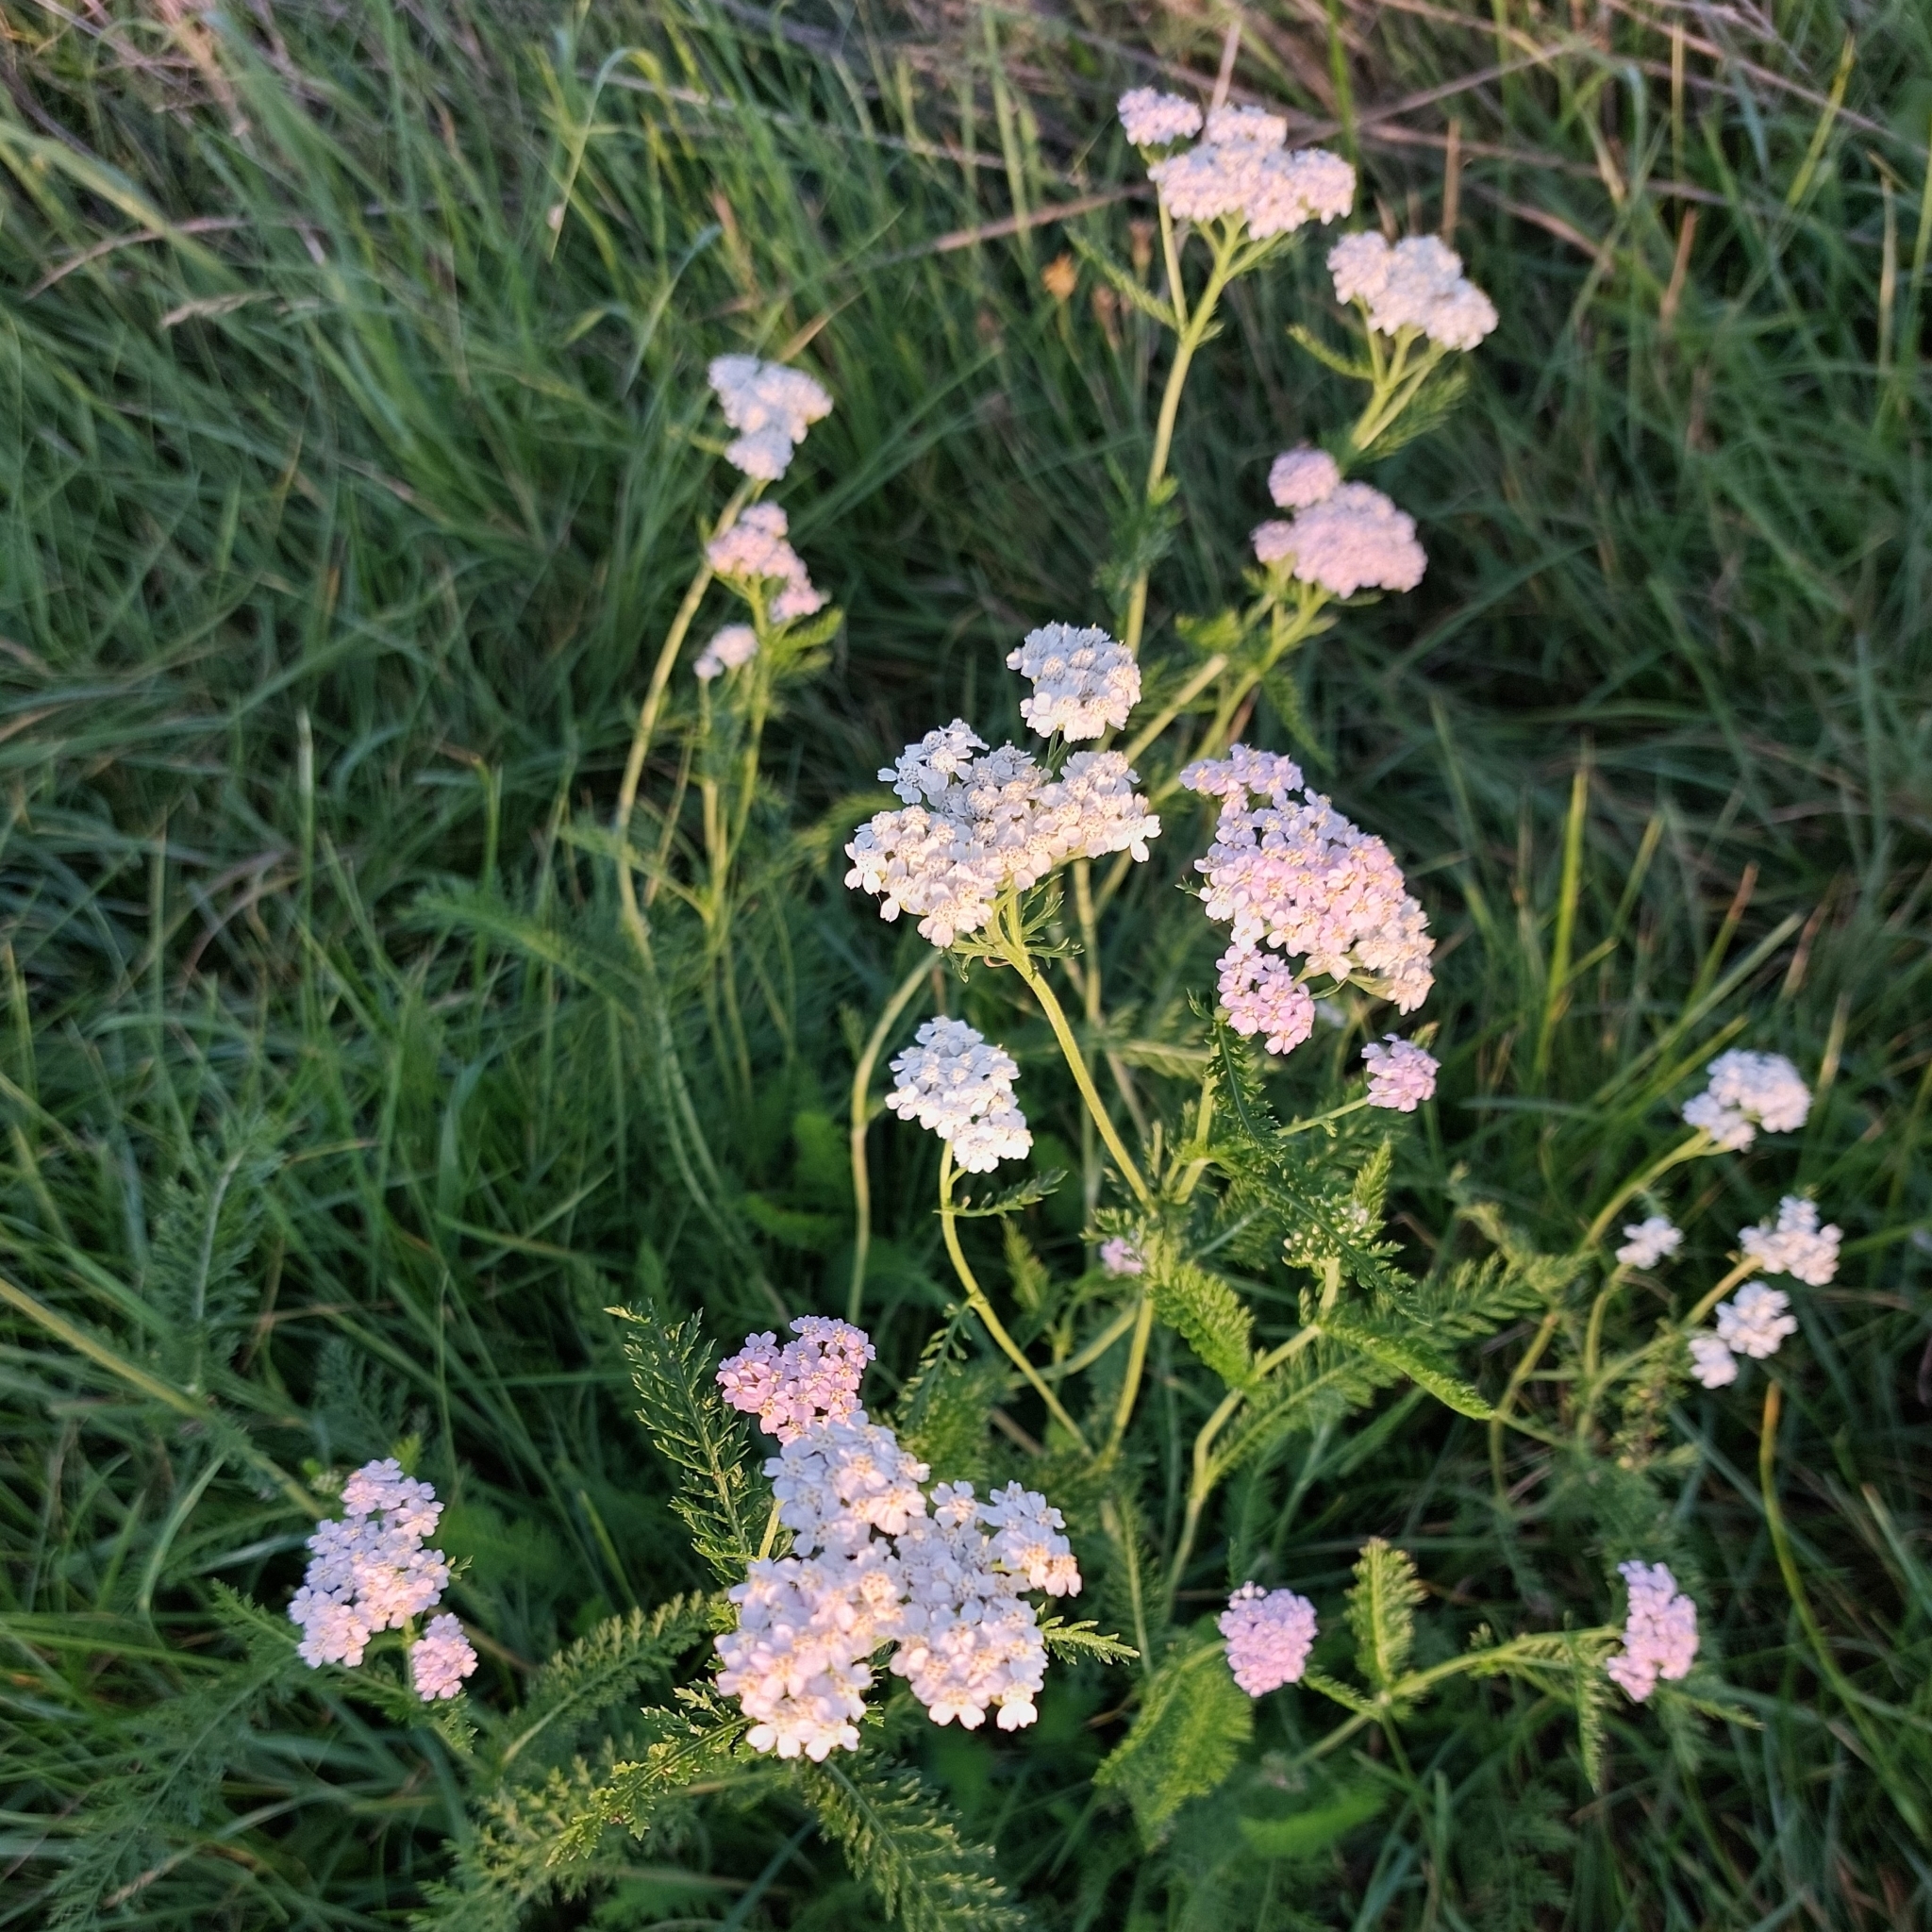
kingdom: Plantae
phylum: Tracheophyta
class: Magnoliopsida
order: Asterales
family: Asteraceae
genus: Achillea
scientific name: Achillea millefolium
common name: Yarrow
